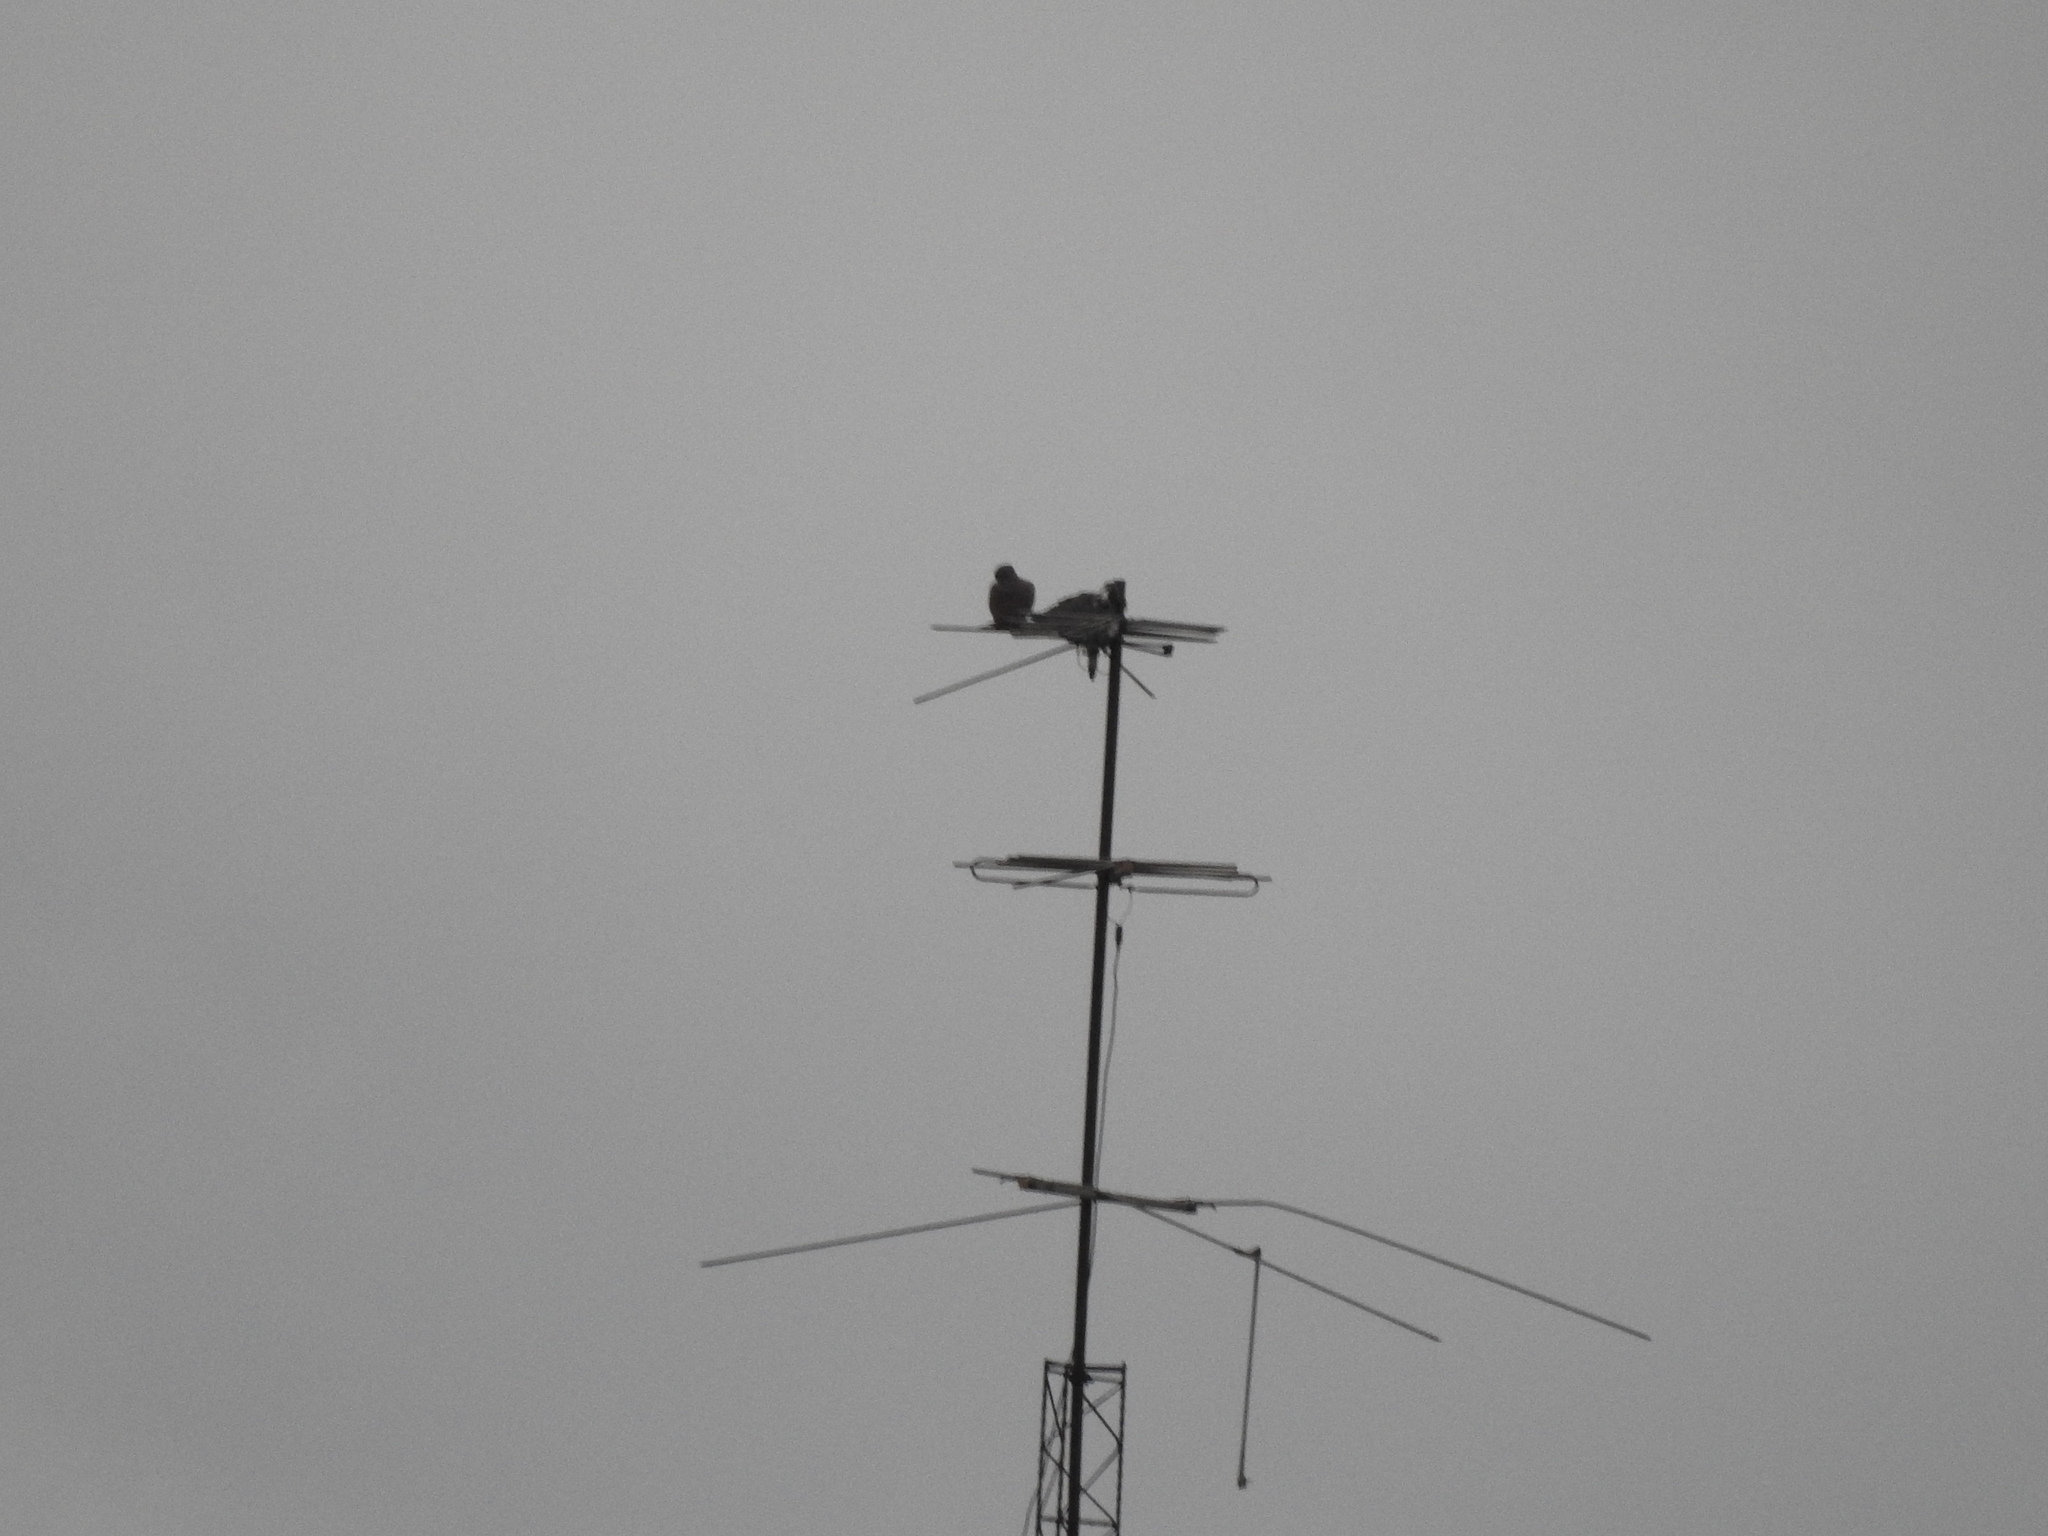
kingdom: Animalia
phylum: Chordata
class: Aves
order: Columbiformes
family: Columbidae
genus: Columba
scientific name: Columba livia
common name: Rock pigeon
